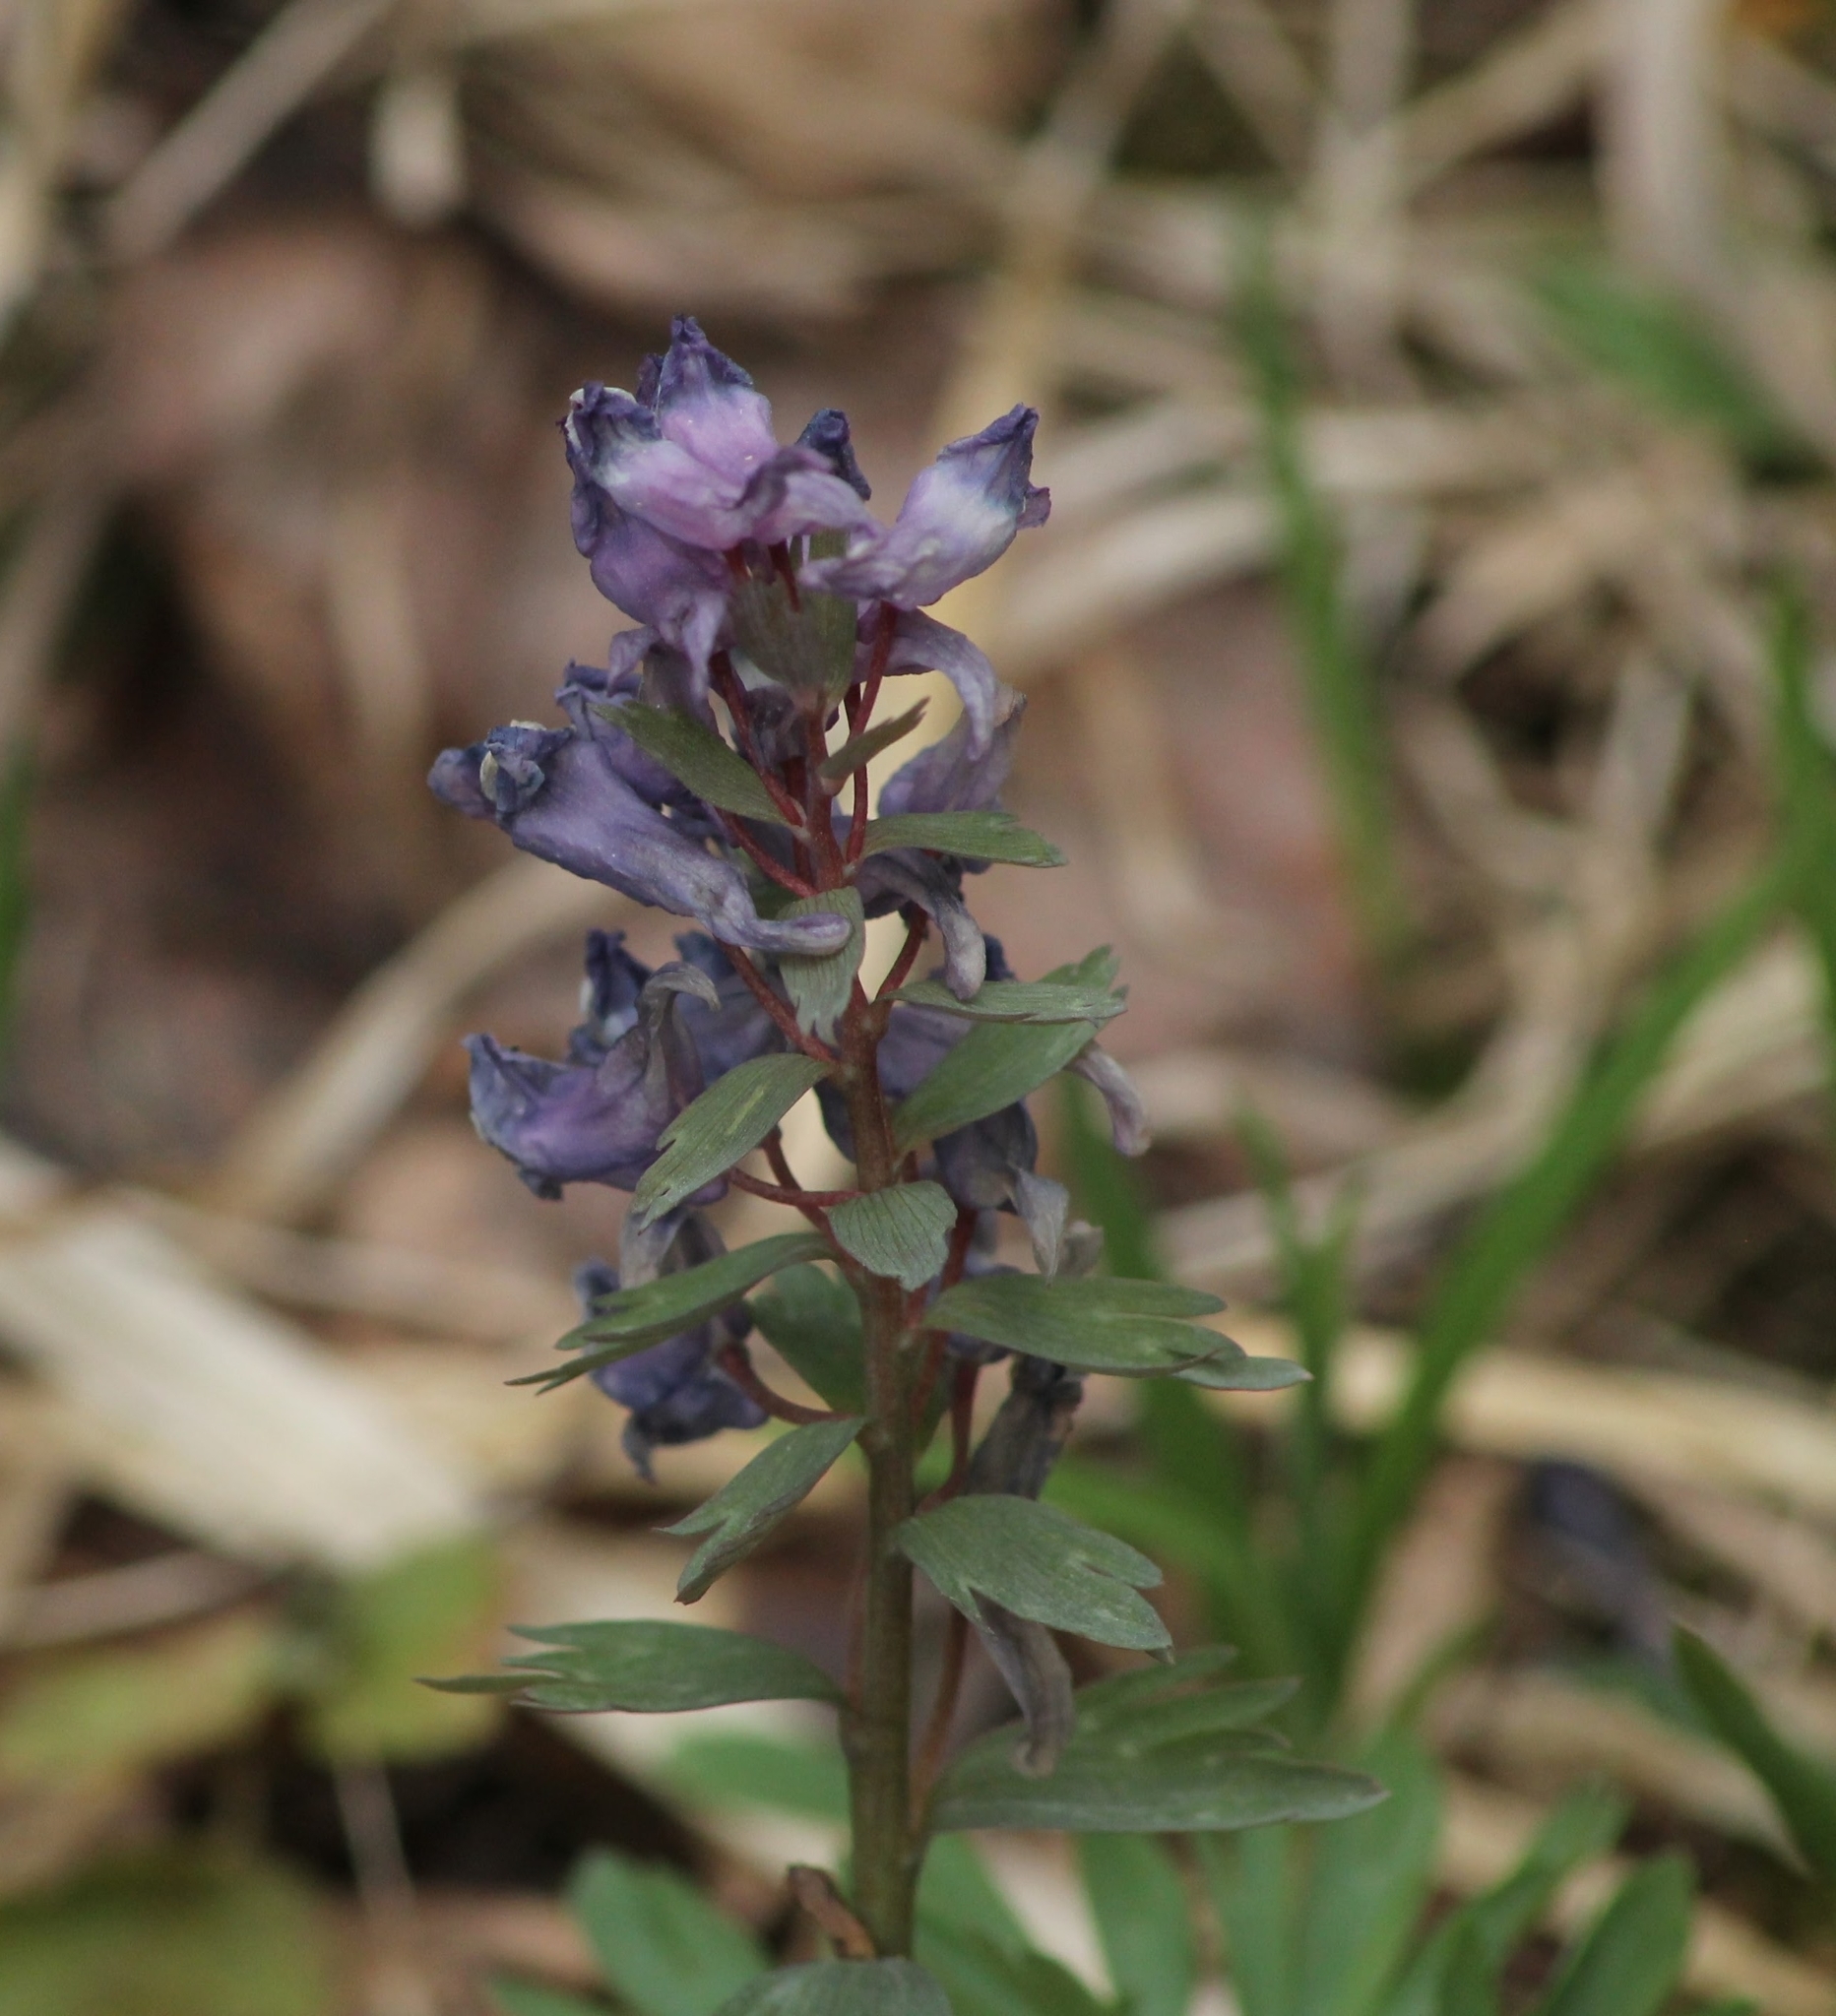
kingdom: Plantae
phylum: Tracheophyta
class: Magnoliopsida
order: Ranunculales
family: Papaveraceae
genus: Corydalis
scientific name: Corydalis solida
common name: Bird-in-a-bush
